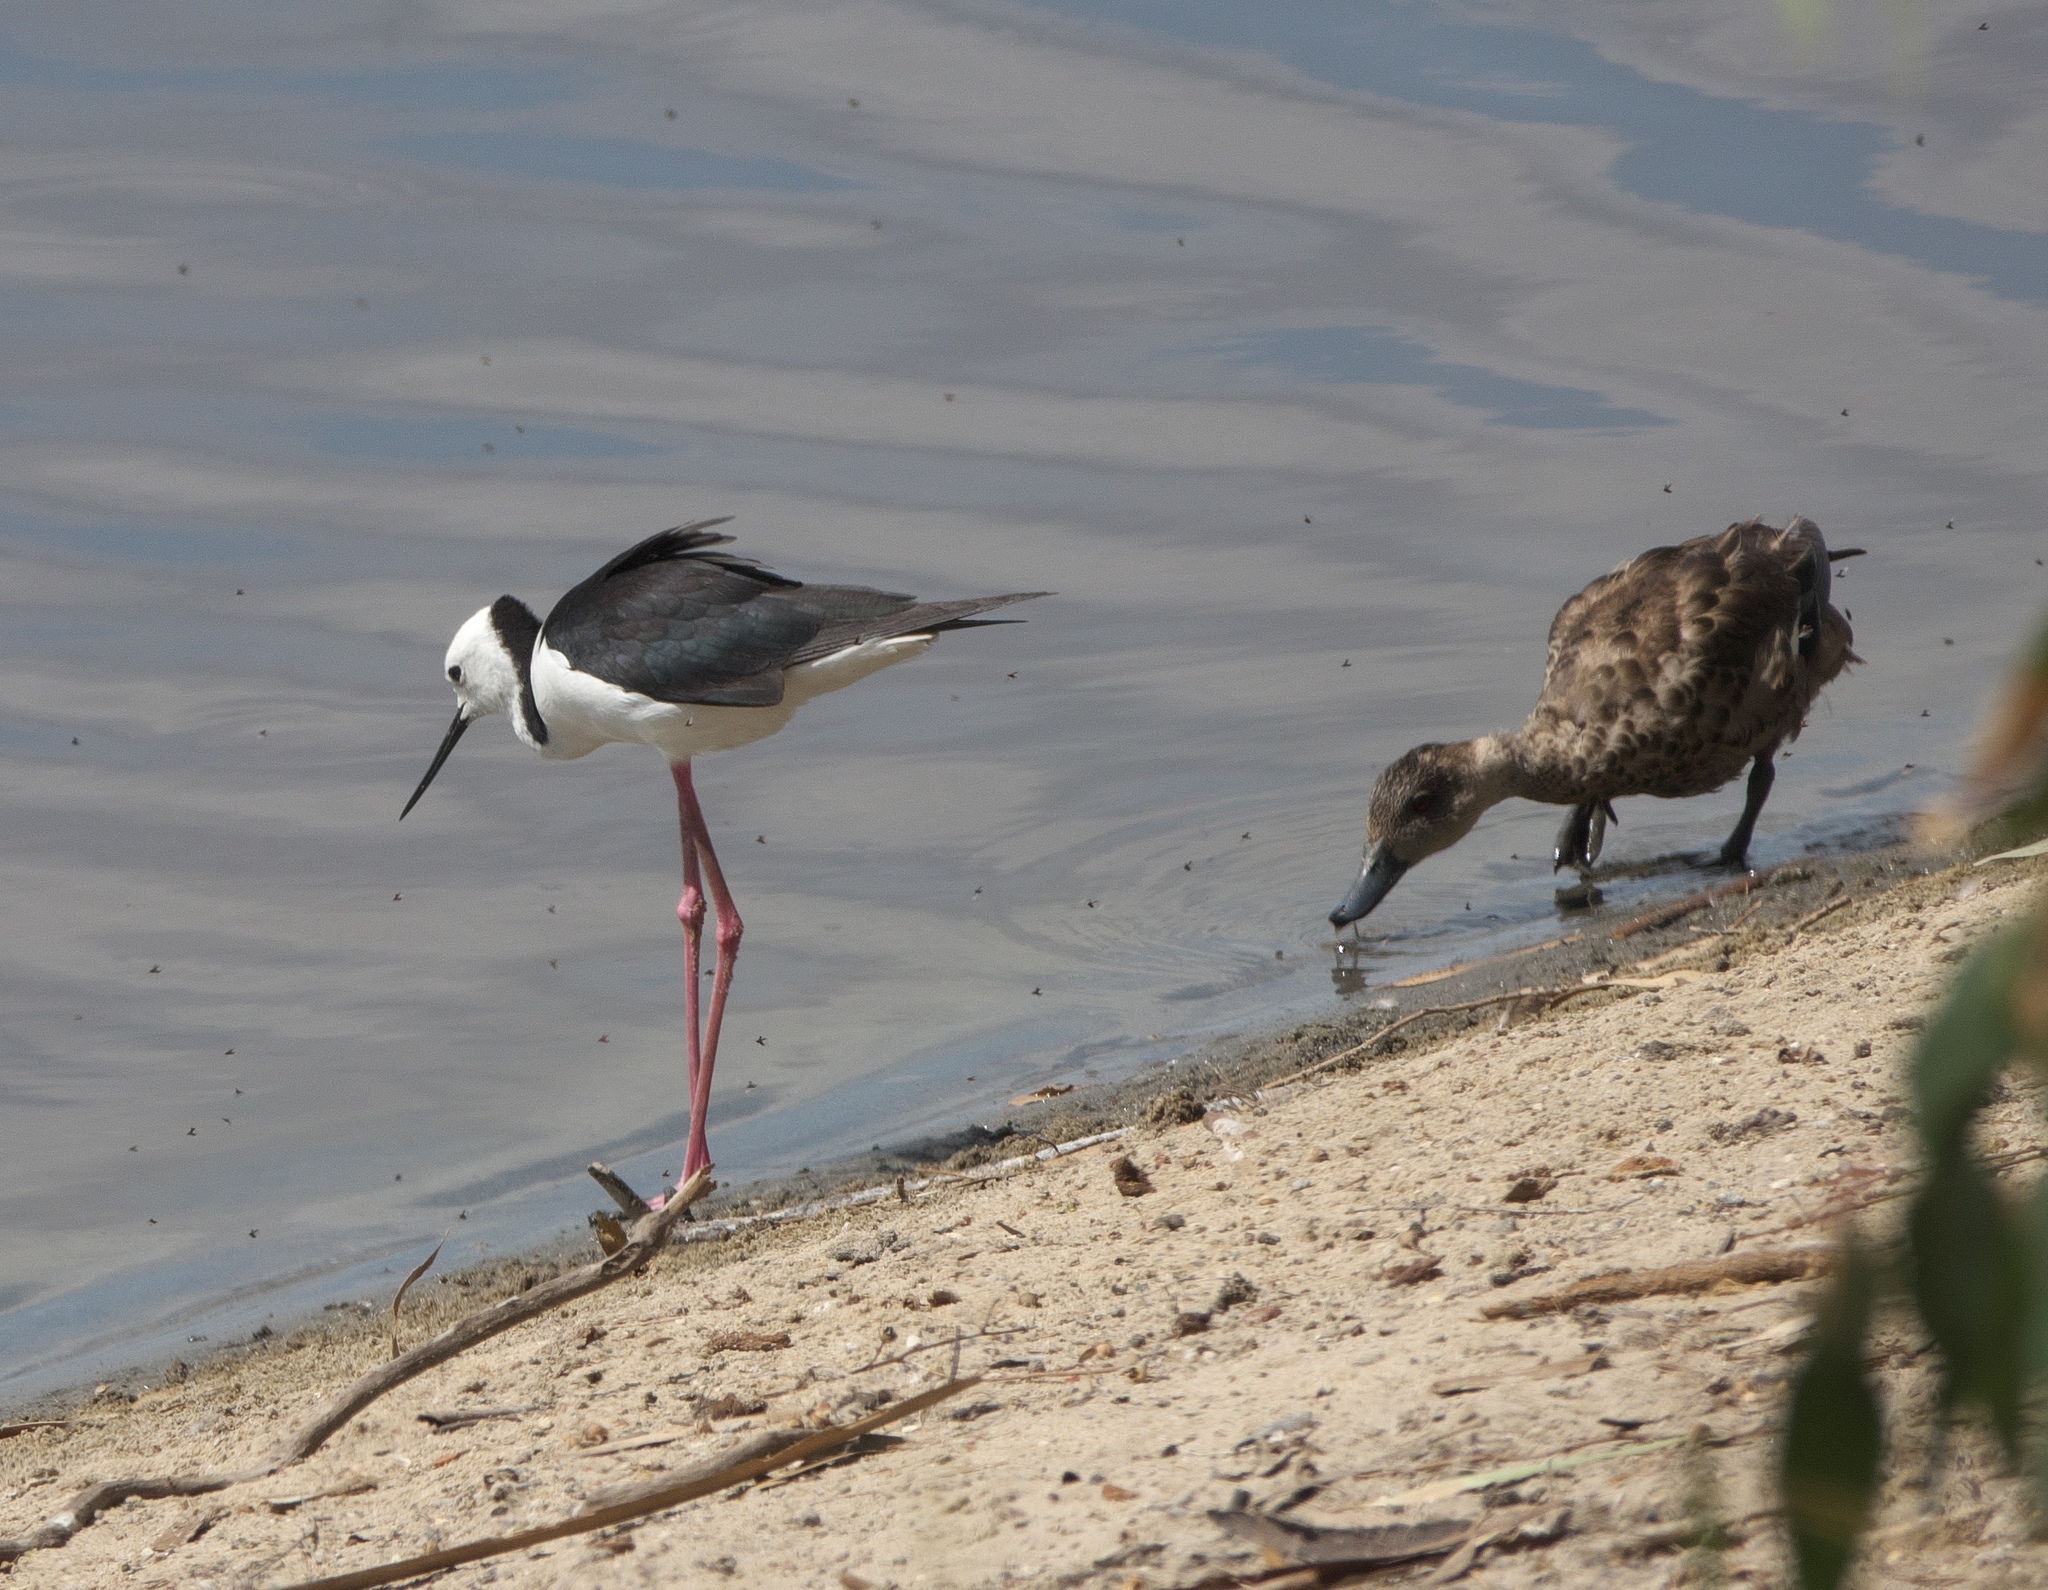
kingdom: Animalia
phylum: Chordata
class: Aves
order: Charadriiformes
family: Recurvirostridae
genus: Himantopus
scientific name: Himantopus leucocephalus
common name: White-headed stilt
